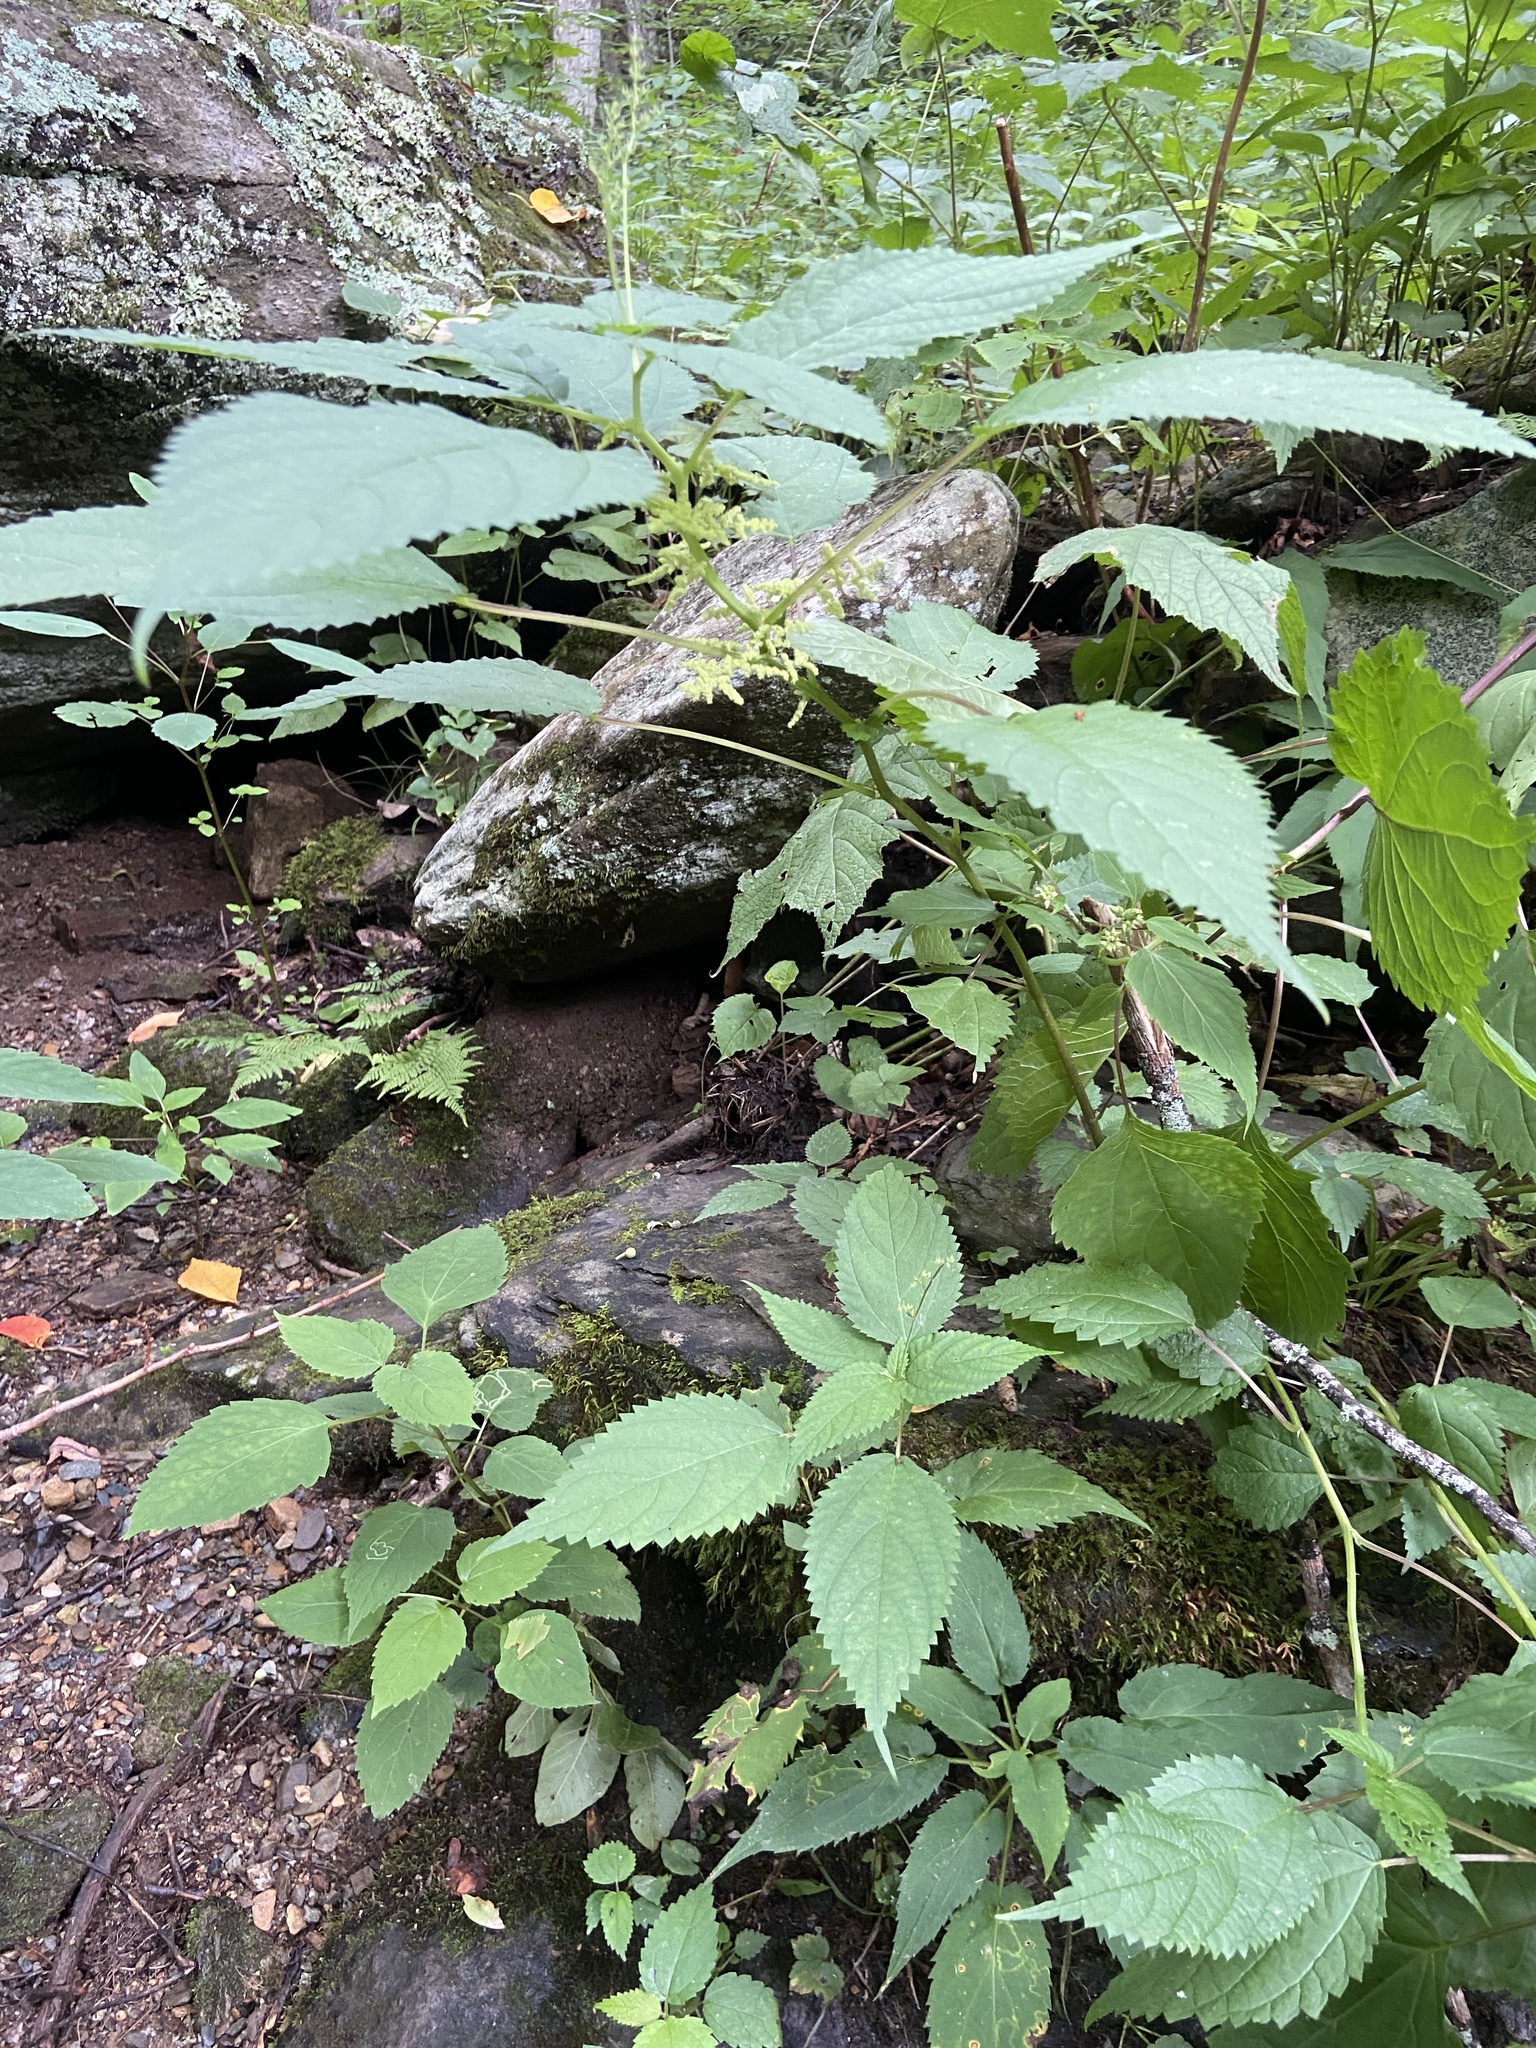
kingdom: Plantae
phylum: Tracheophyta
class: Magnoliopsida
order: Rosales
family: Urticaceae
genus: Laportea
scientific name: Laportea canadensis
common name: Canada nettle
